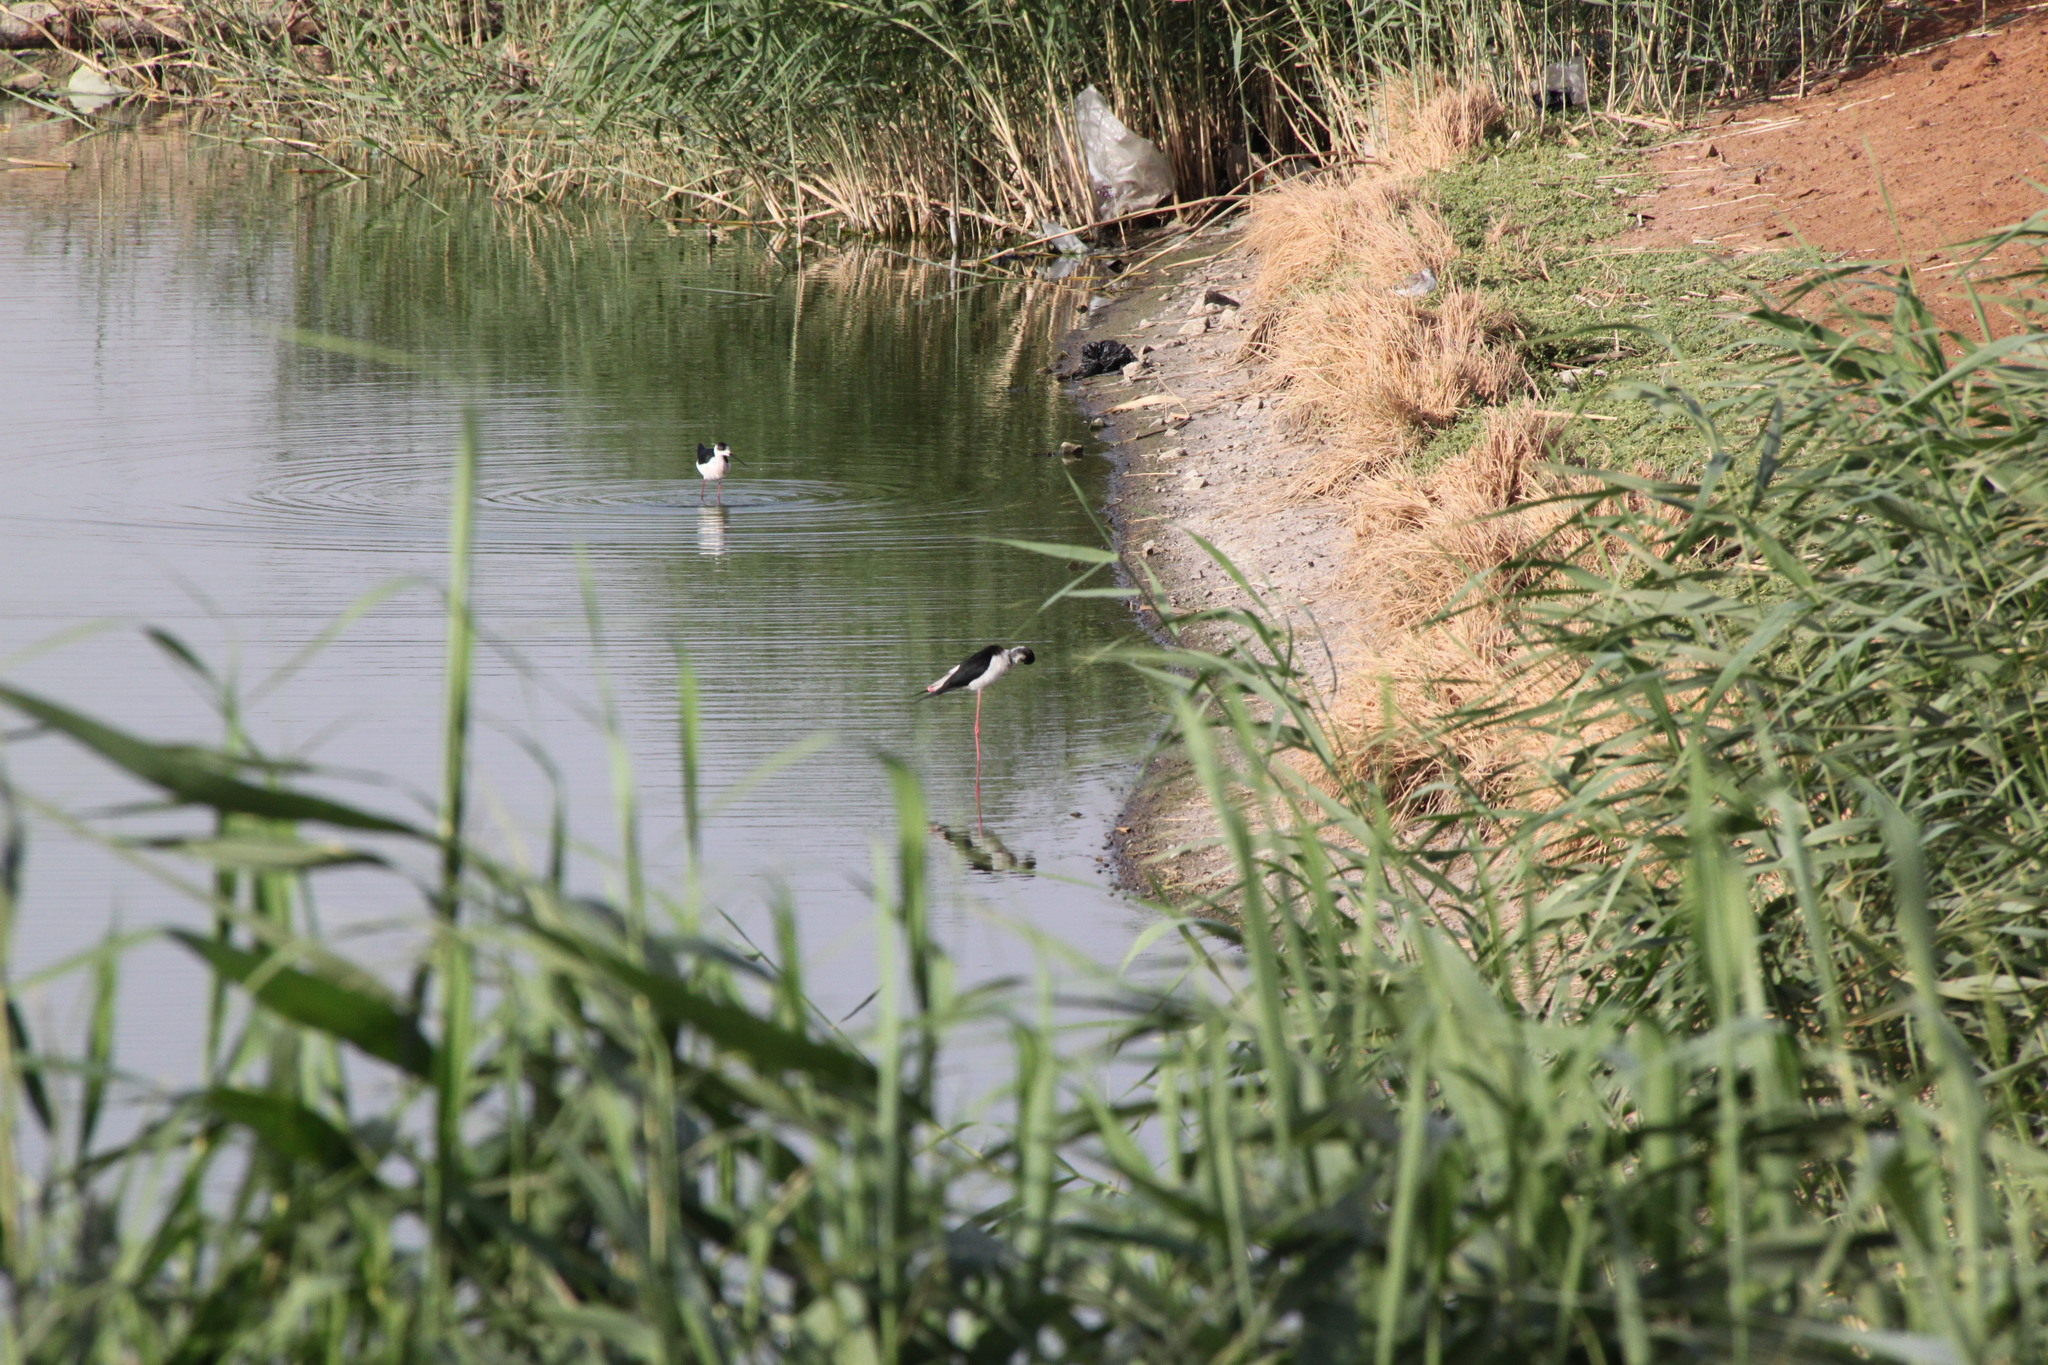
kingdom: Animalia
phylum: Chordata
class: Aves
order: Charadriiformes
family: Recurvirostridae
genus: Himantopus
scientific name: Himantopus himantopus
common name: Black-winged stilt
